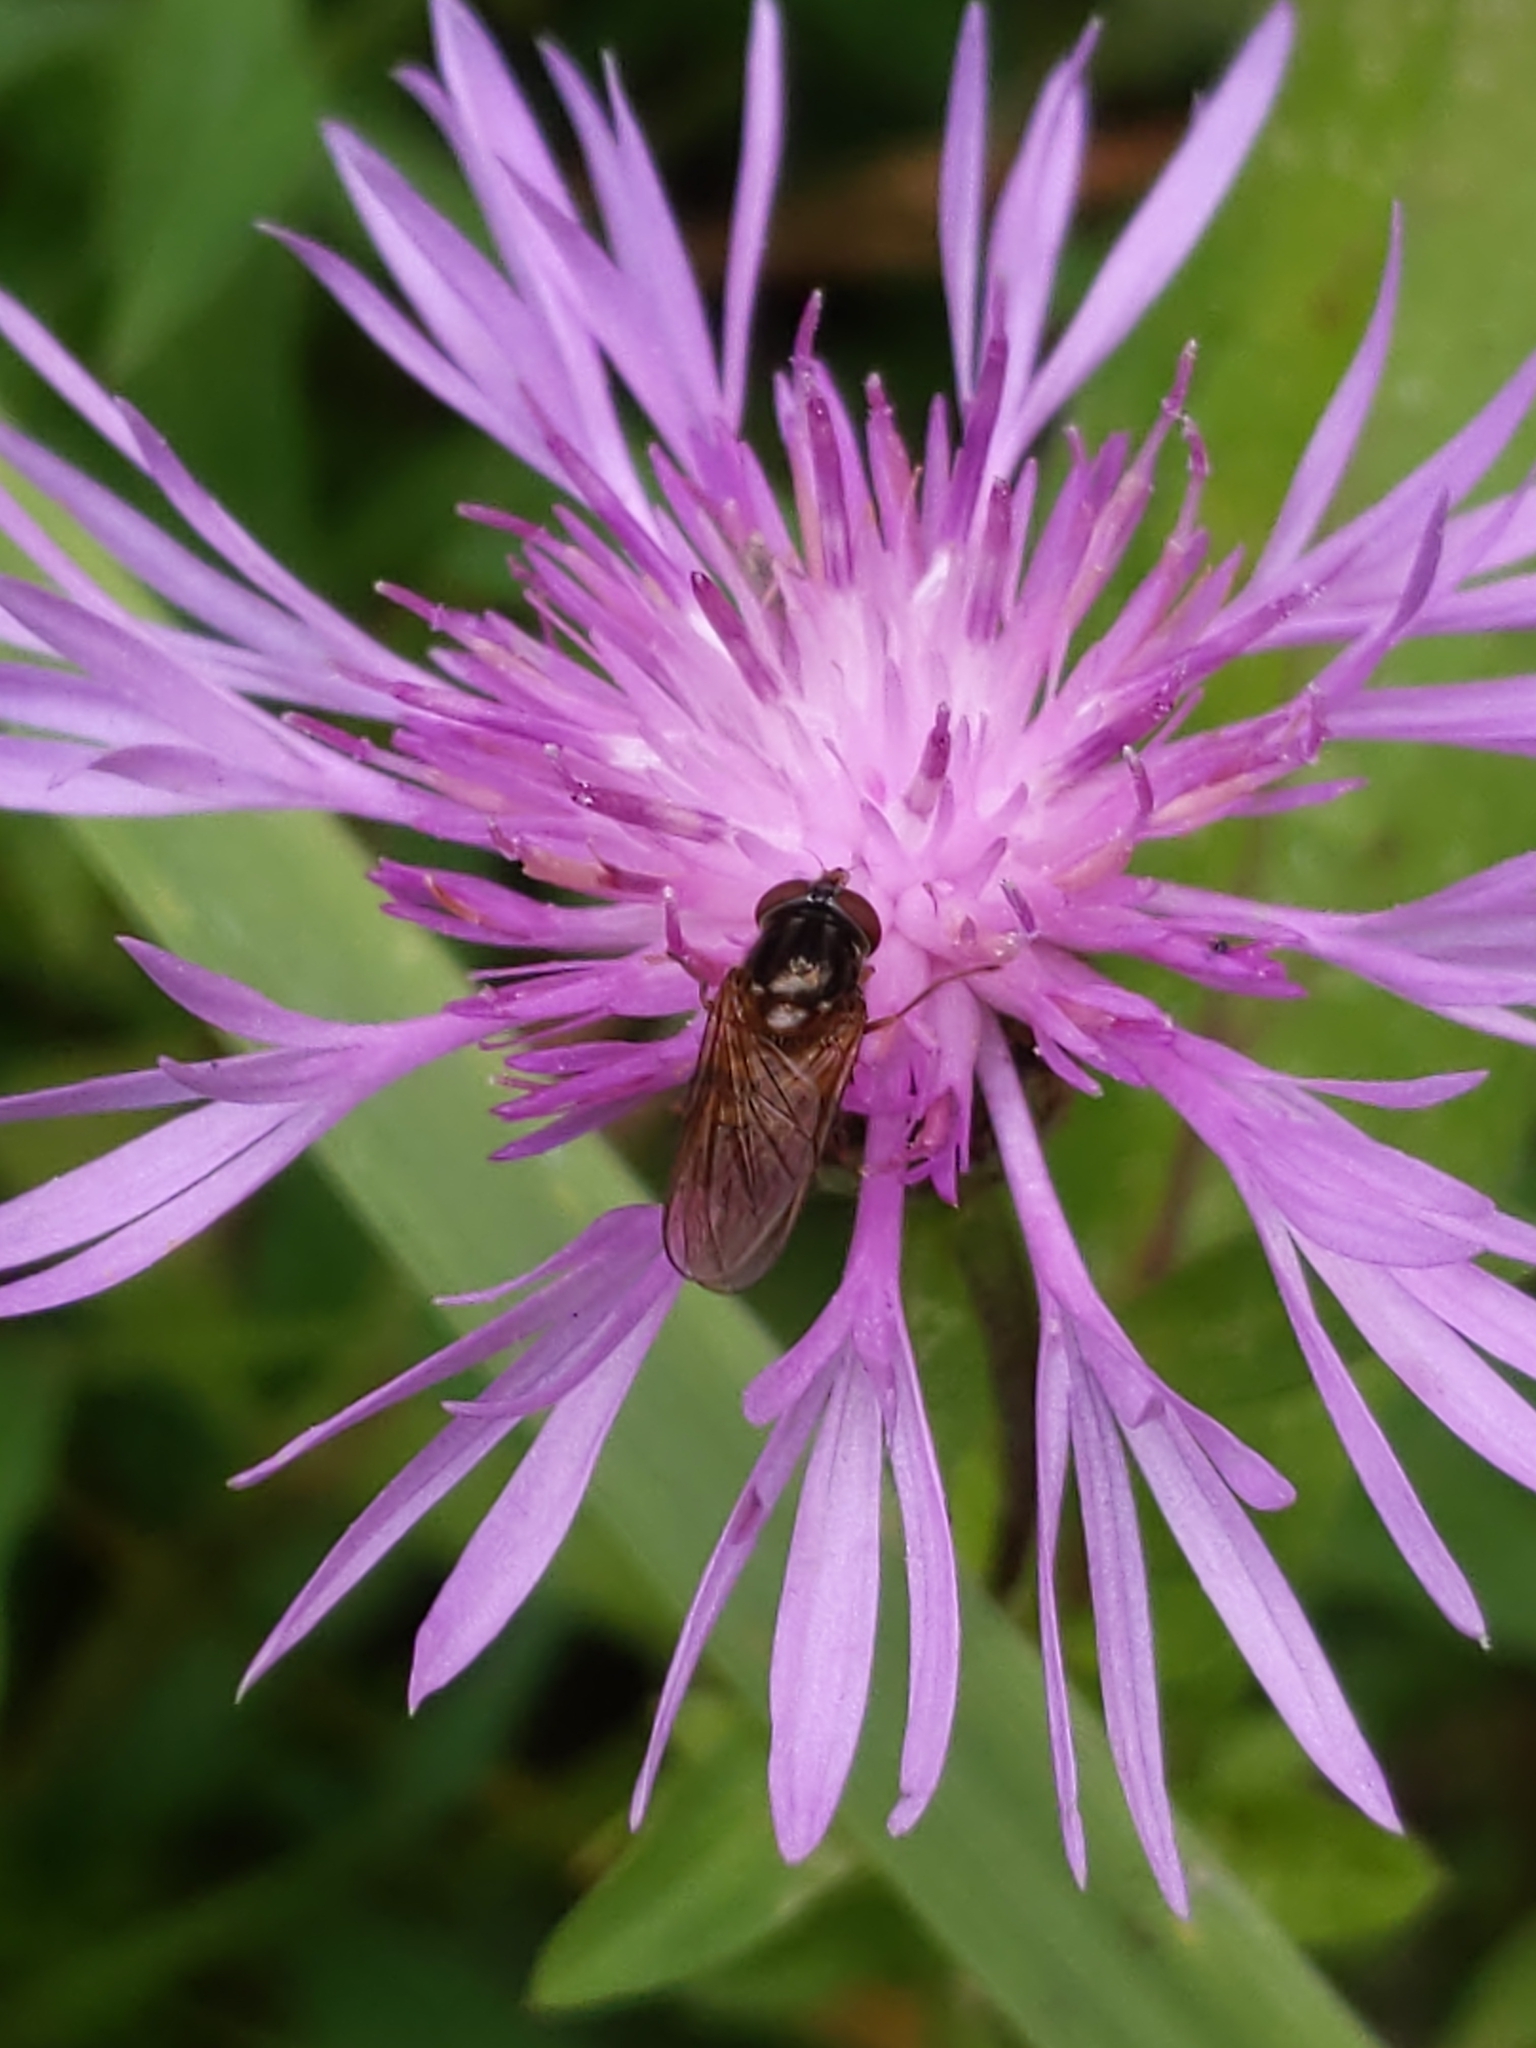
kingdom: Animalia
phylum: Arthropoda
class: Insecta
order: Diptera
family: Syrphidae
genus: Rhingia
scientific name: Rhingia nasica
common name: American snout fly
